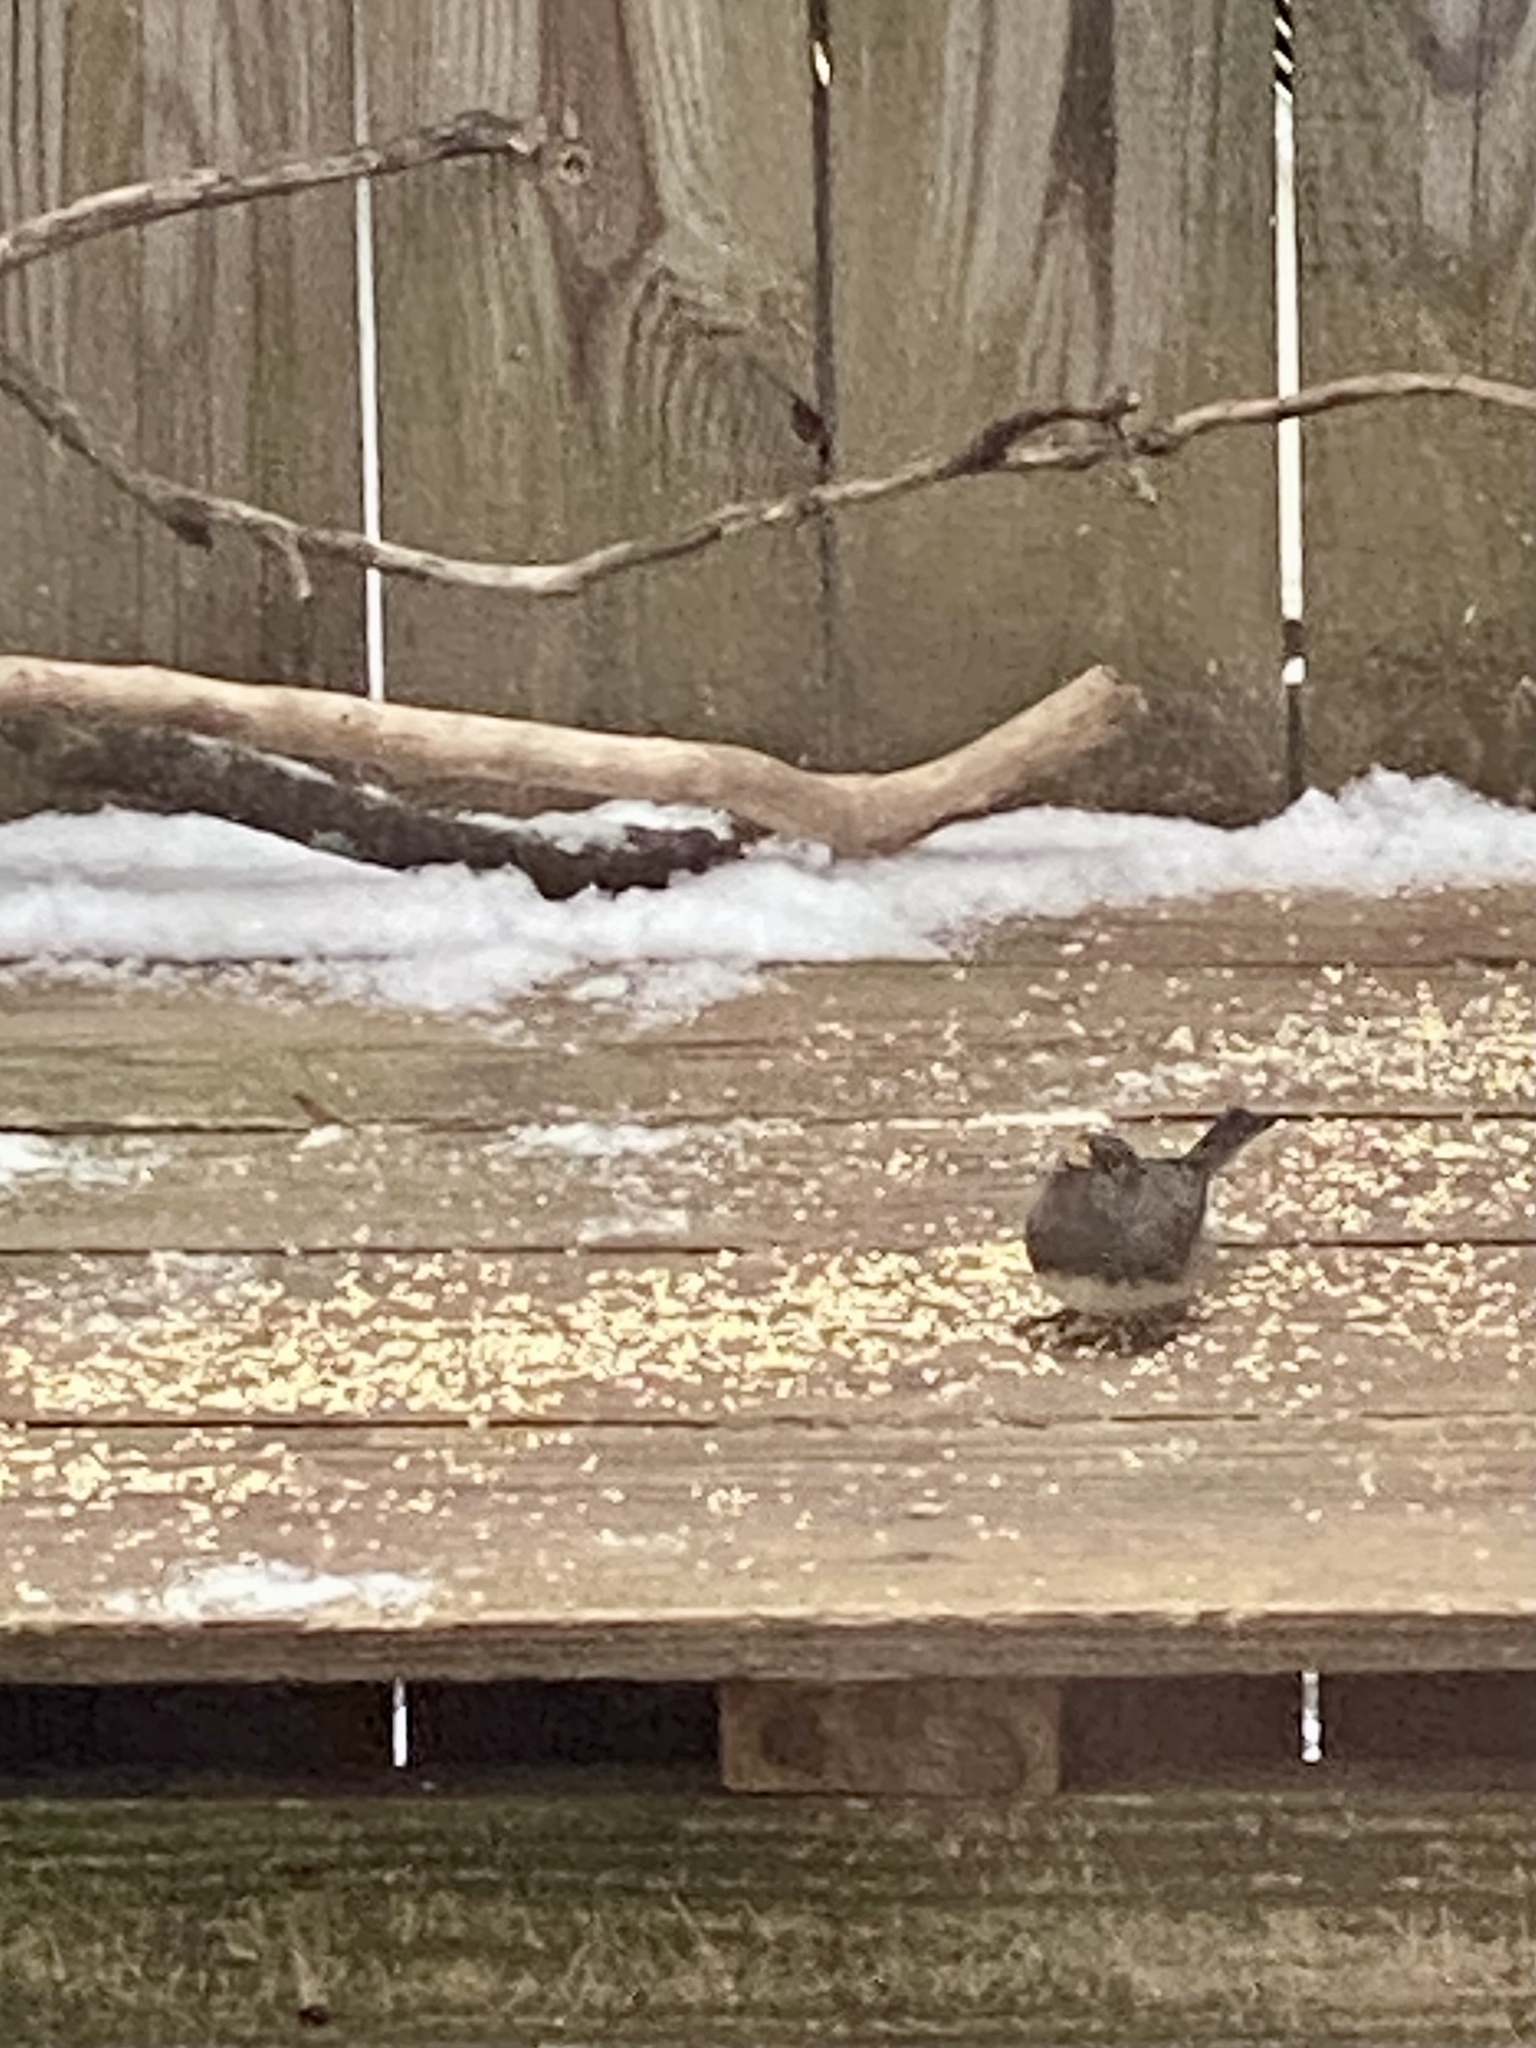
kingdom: Animalia
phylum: Chordata
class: Aves
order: Passeriformes
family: Passerellidae
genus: Junco
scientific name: Junco hyemalis
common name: Dark-eyed junco
